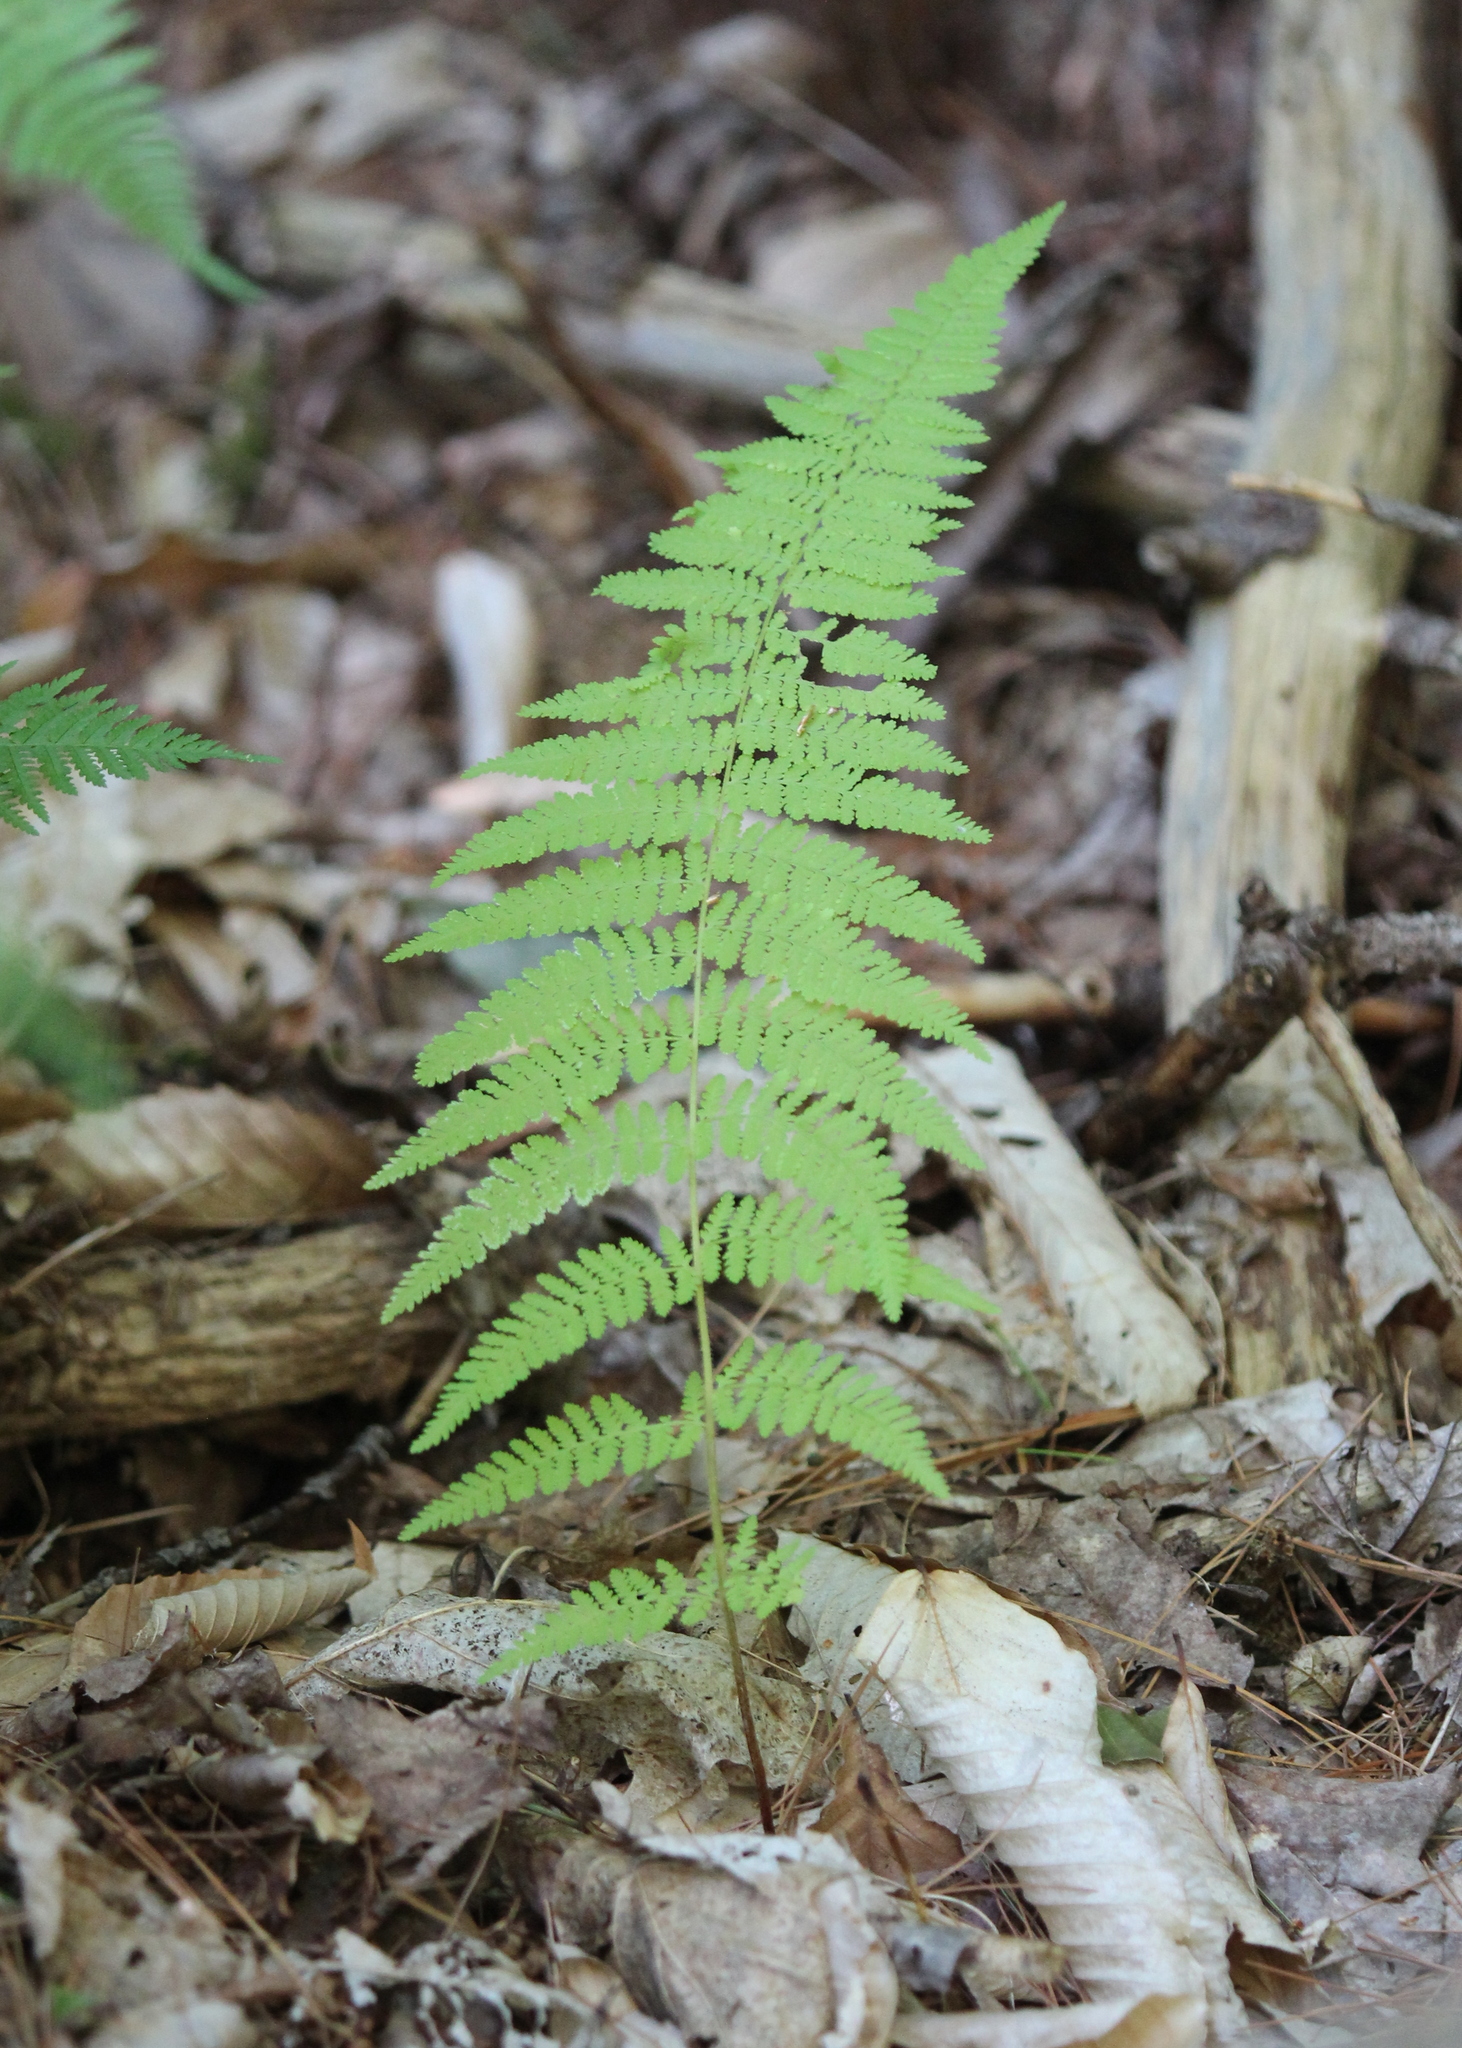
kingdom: Plantae
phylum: Tracheophyta
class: Polypodiopsida
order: Polypodiales
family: Dennstaedtiaceae
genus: Sitobolium
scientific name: Sitobolium punctilobum
